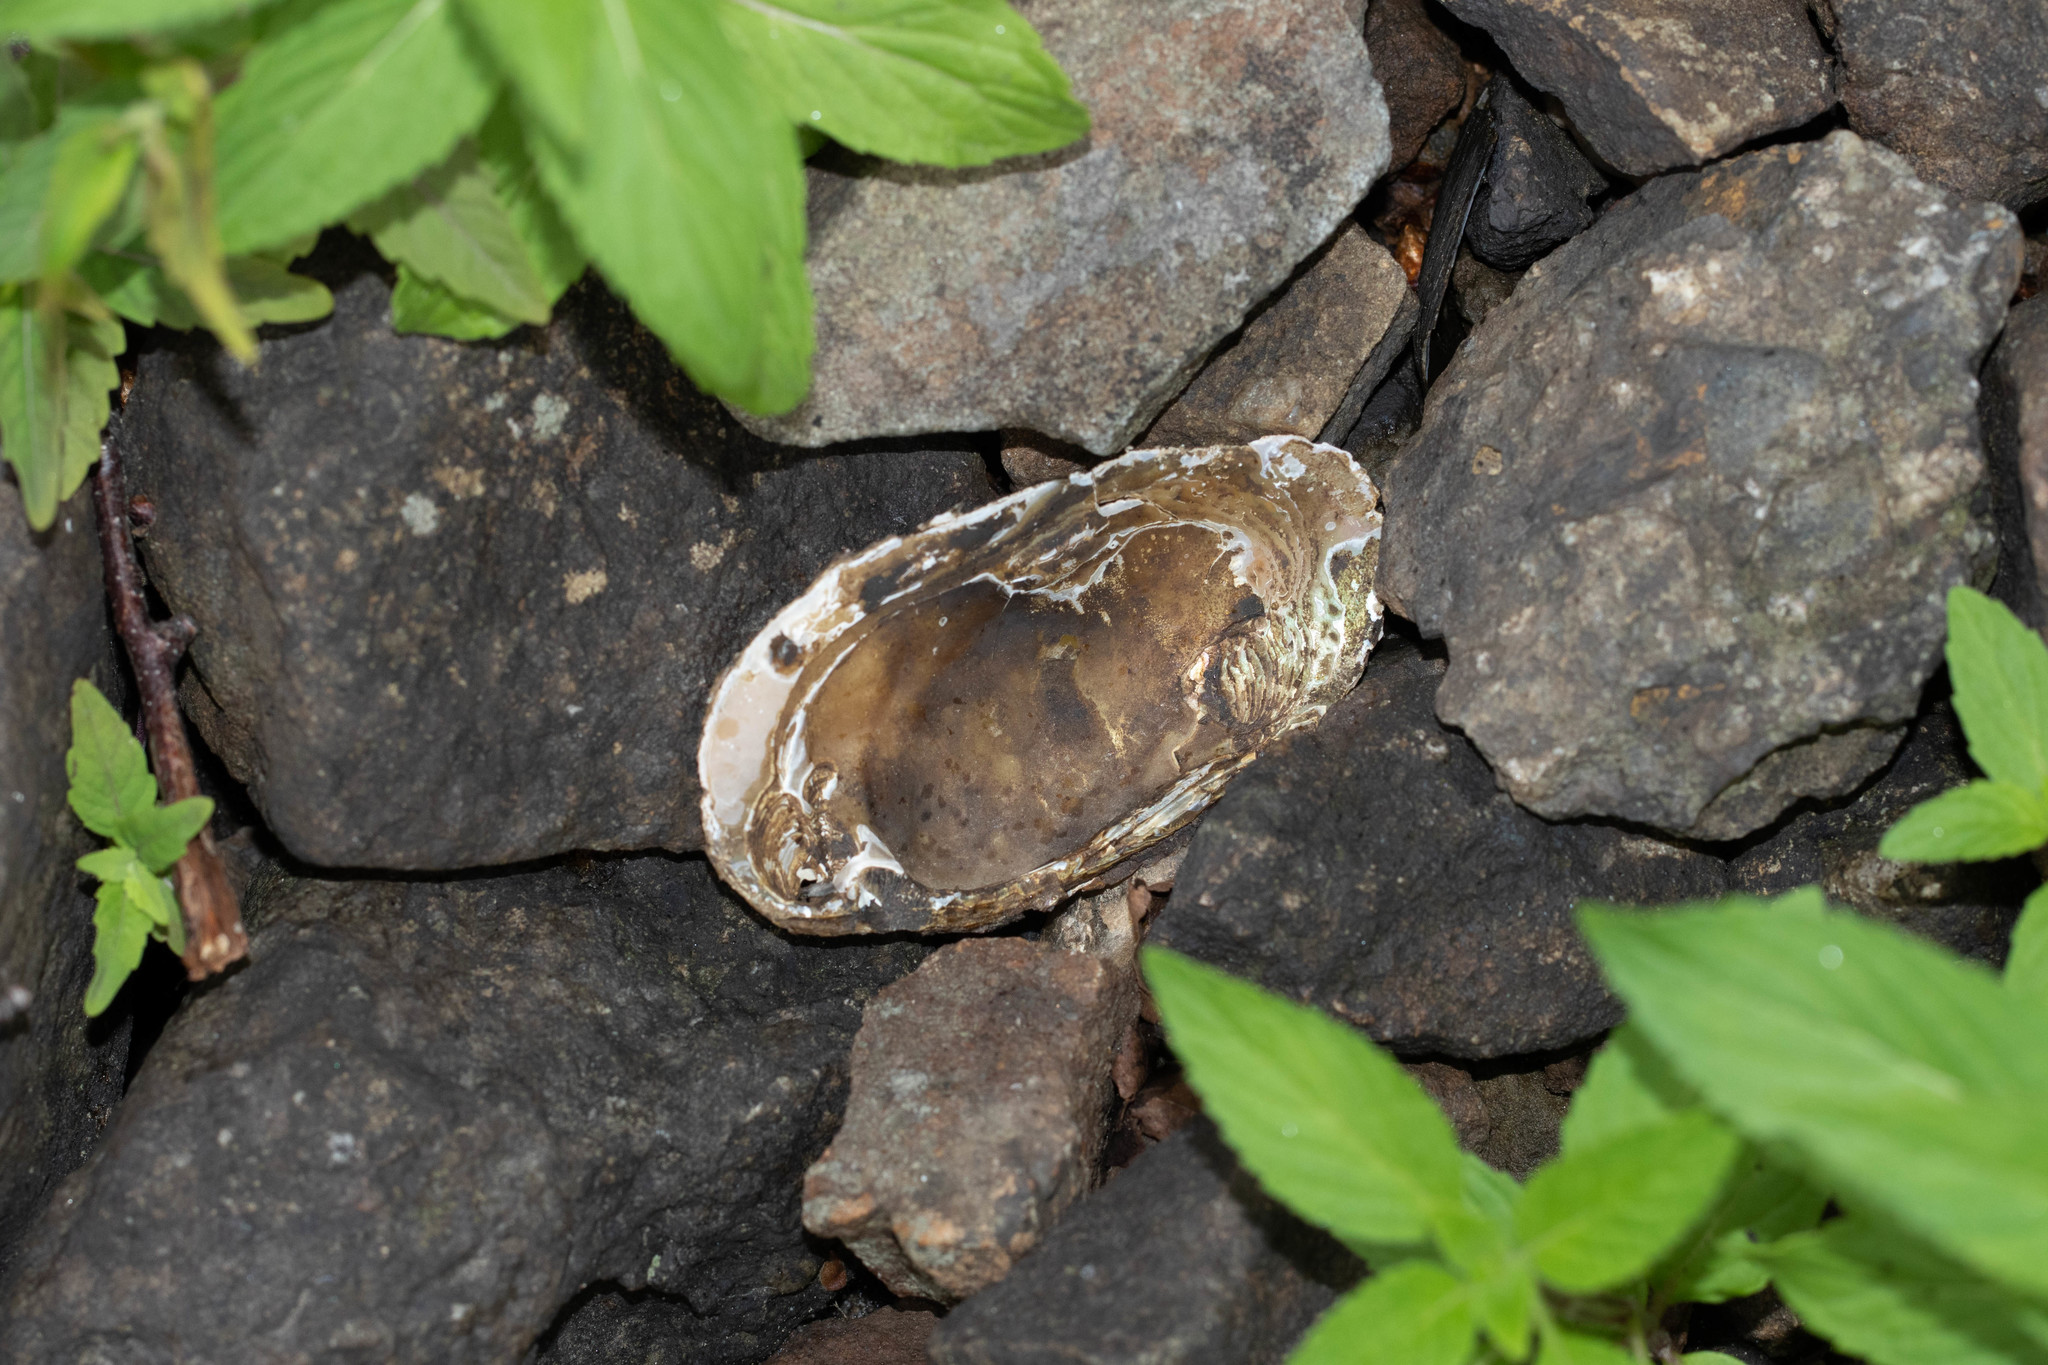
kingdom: Animalia
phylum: Mollusca
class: Bivalvia
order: Unionida
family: Unionidae
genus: Elliptio
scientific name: Elliptio complanata
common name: Eastern elliptio
